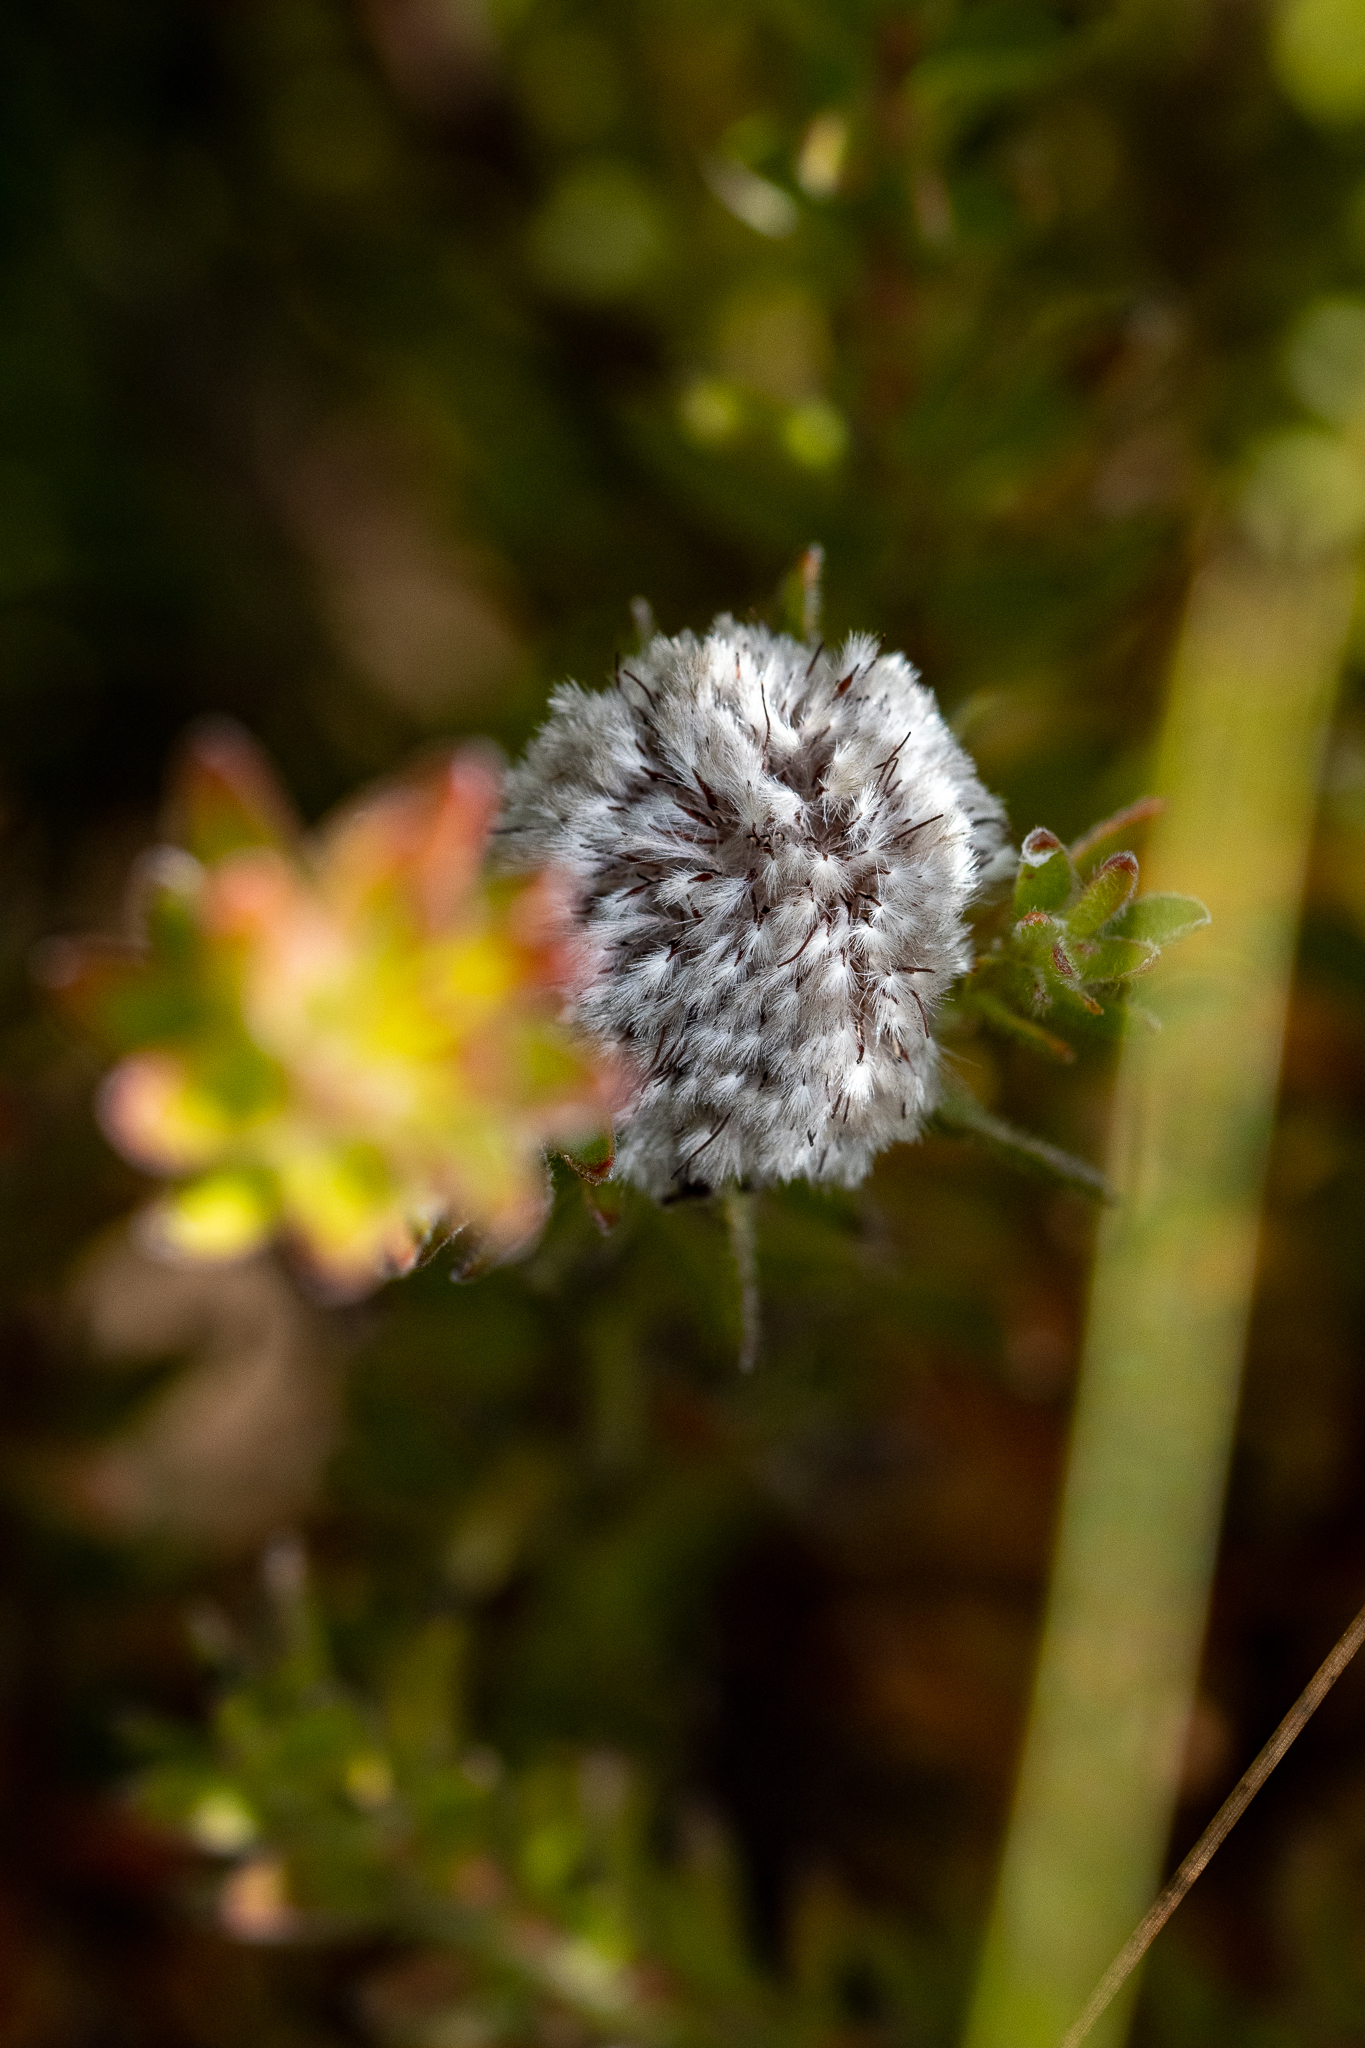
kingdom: Plantae
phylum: Tracheophyta
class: Magnoliopsida
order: Proteales
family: Proteaceae
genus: Diastella
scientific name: Diastella thymelaeoides
